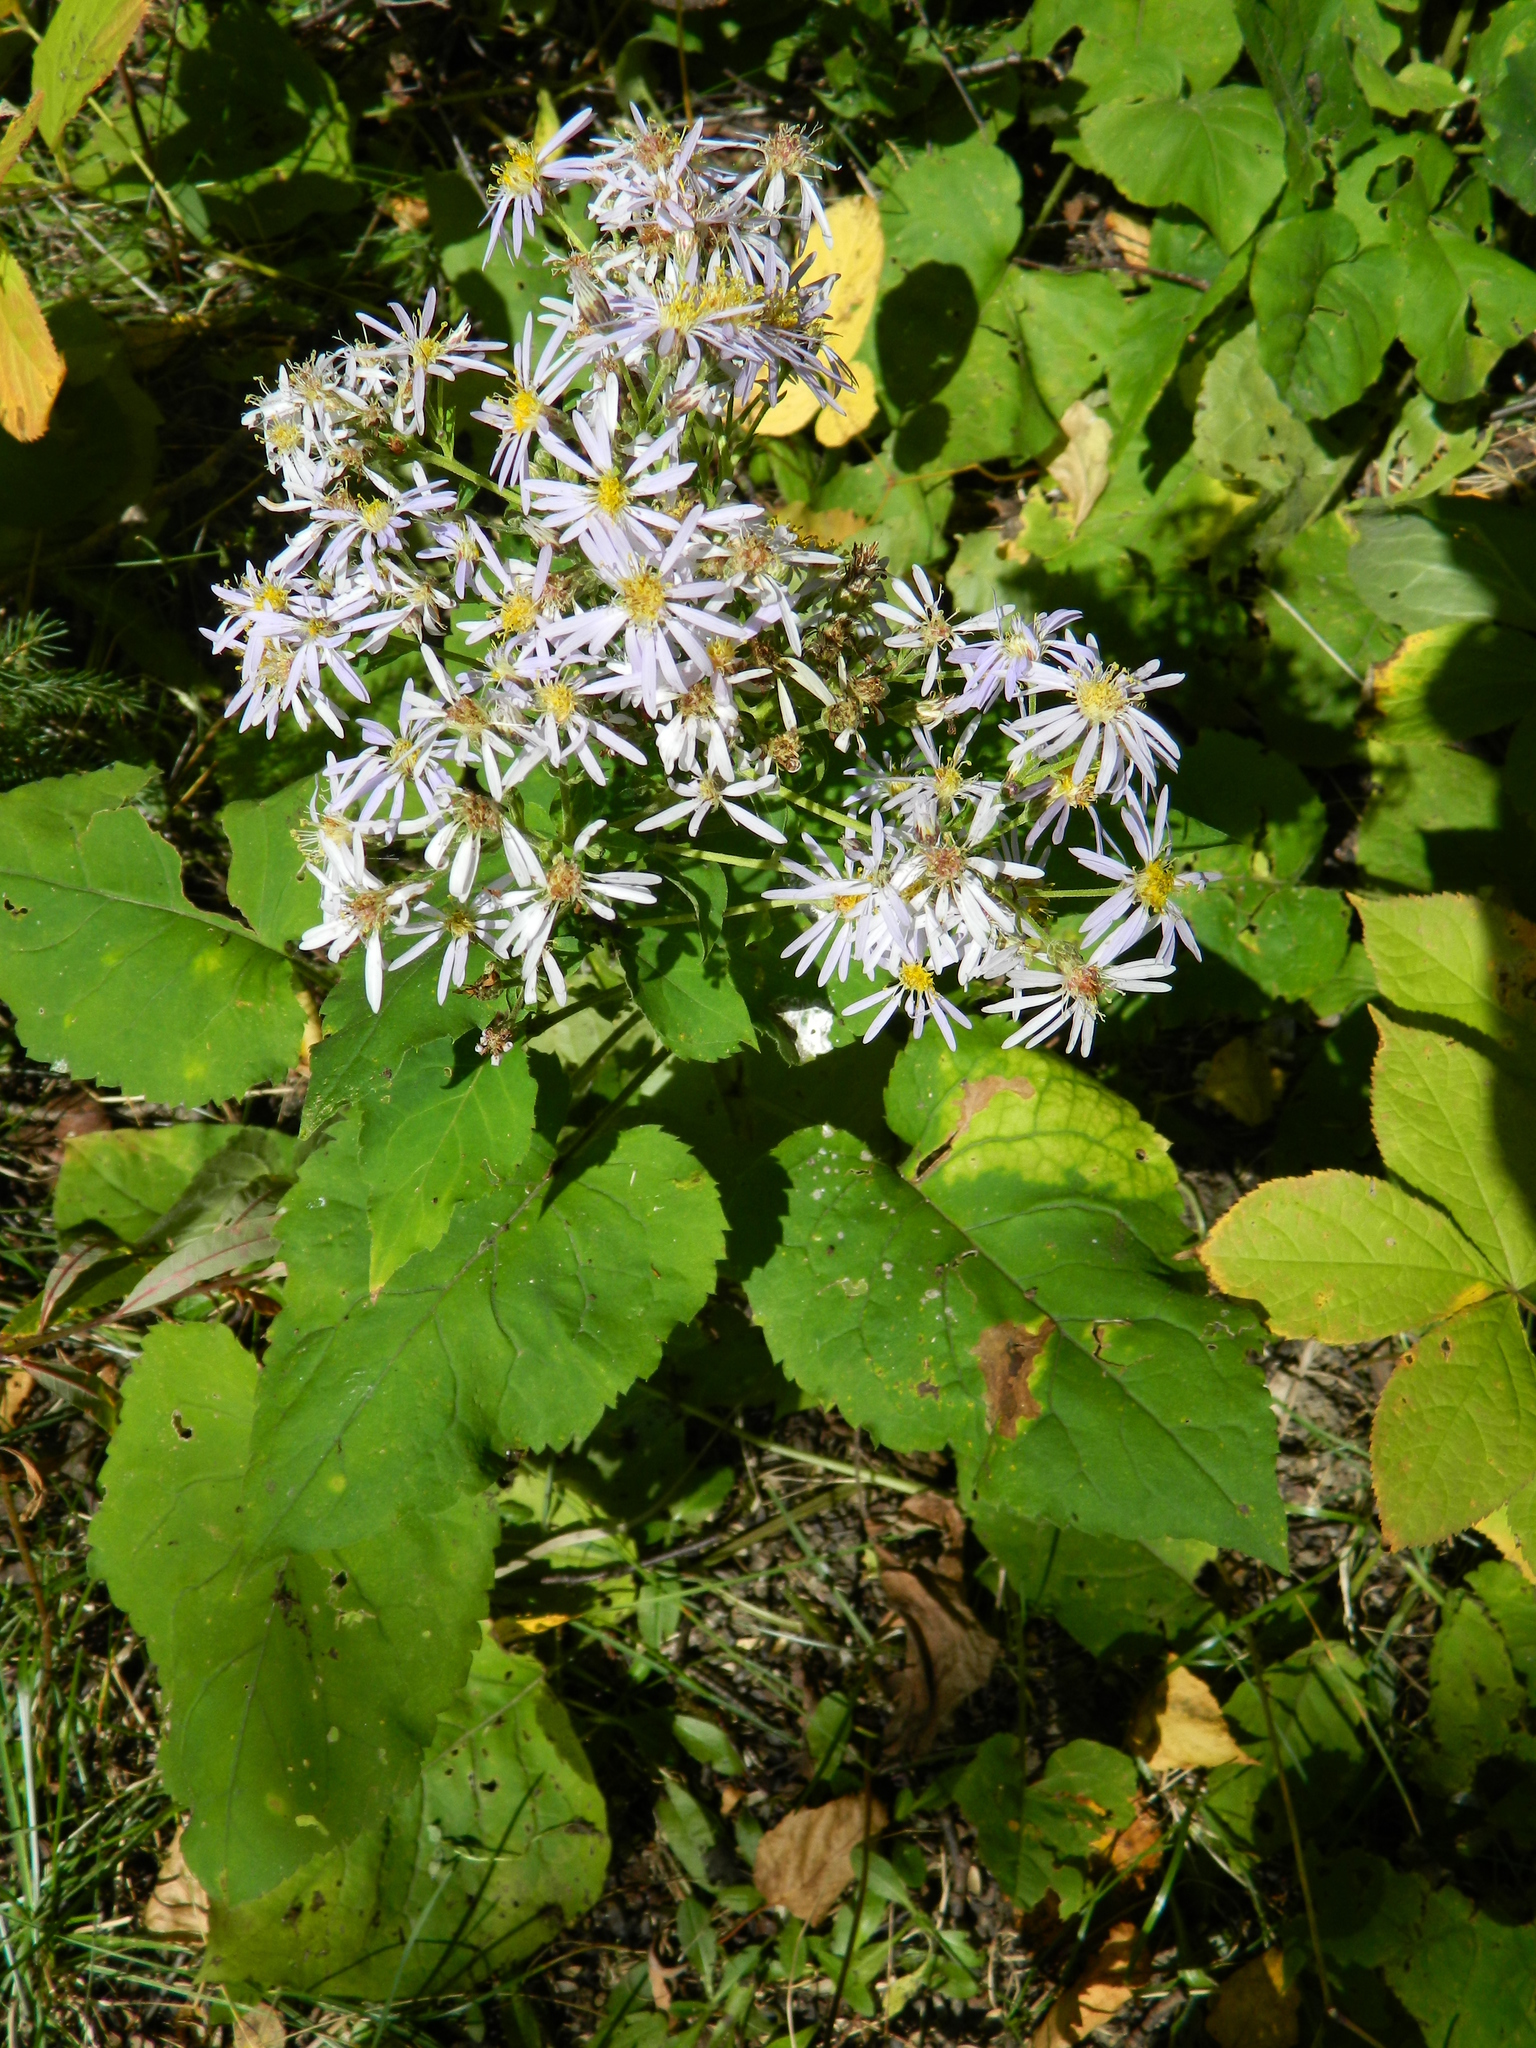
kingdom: Plantae
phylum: Tracheophyta
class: Magnoliopsida
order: Asterales
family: Asteraceae
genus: Eurybia
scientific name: Eurybia macrophylla
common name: Big-leaved aster
